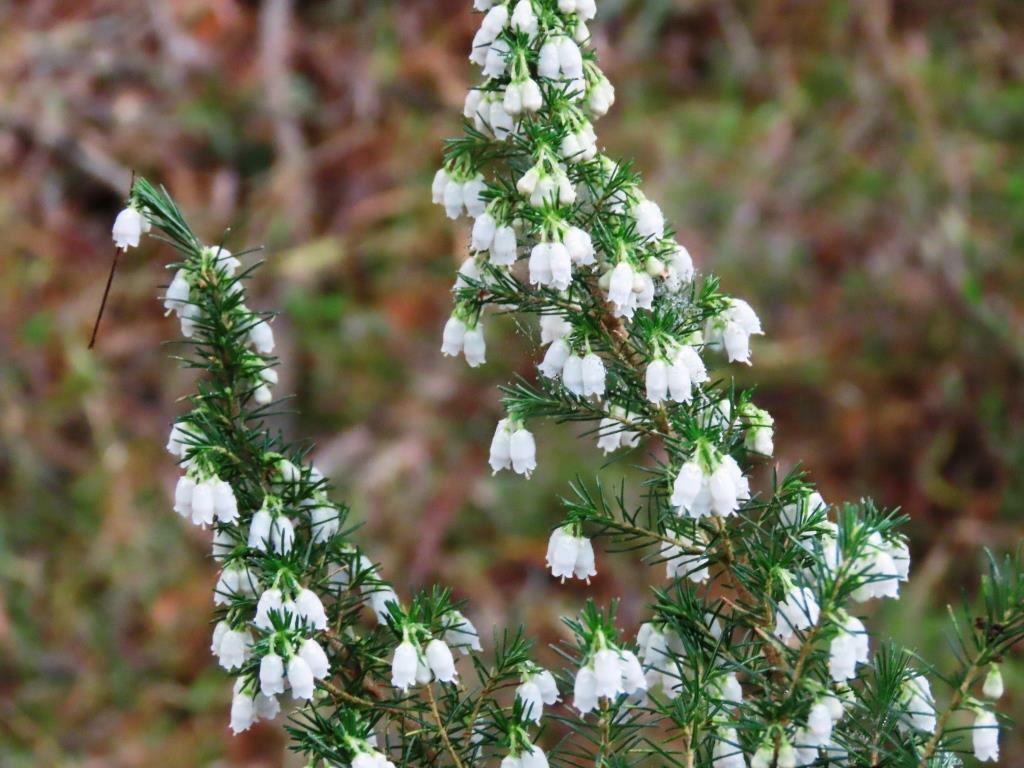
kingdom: Plantae
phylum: Tracheophyta
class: Magnoliopsida
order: Ericales
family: Ericaceae
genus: Erica
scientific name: Erica lusitanica
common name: Spanish heath
